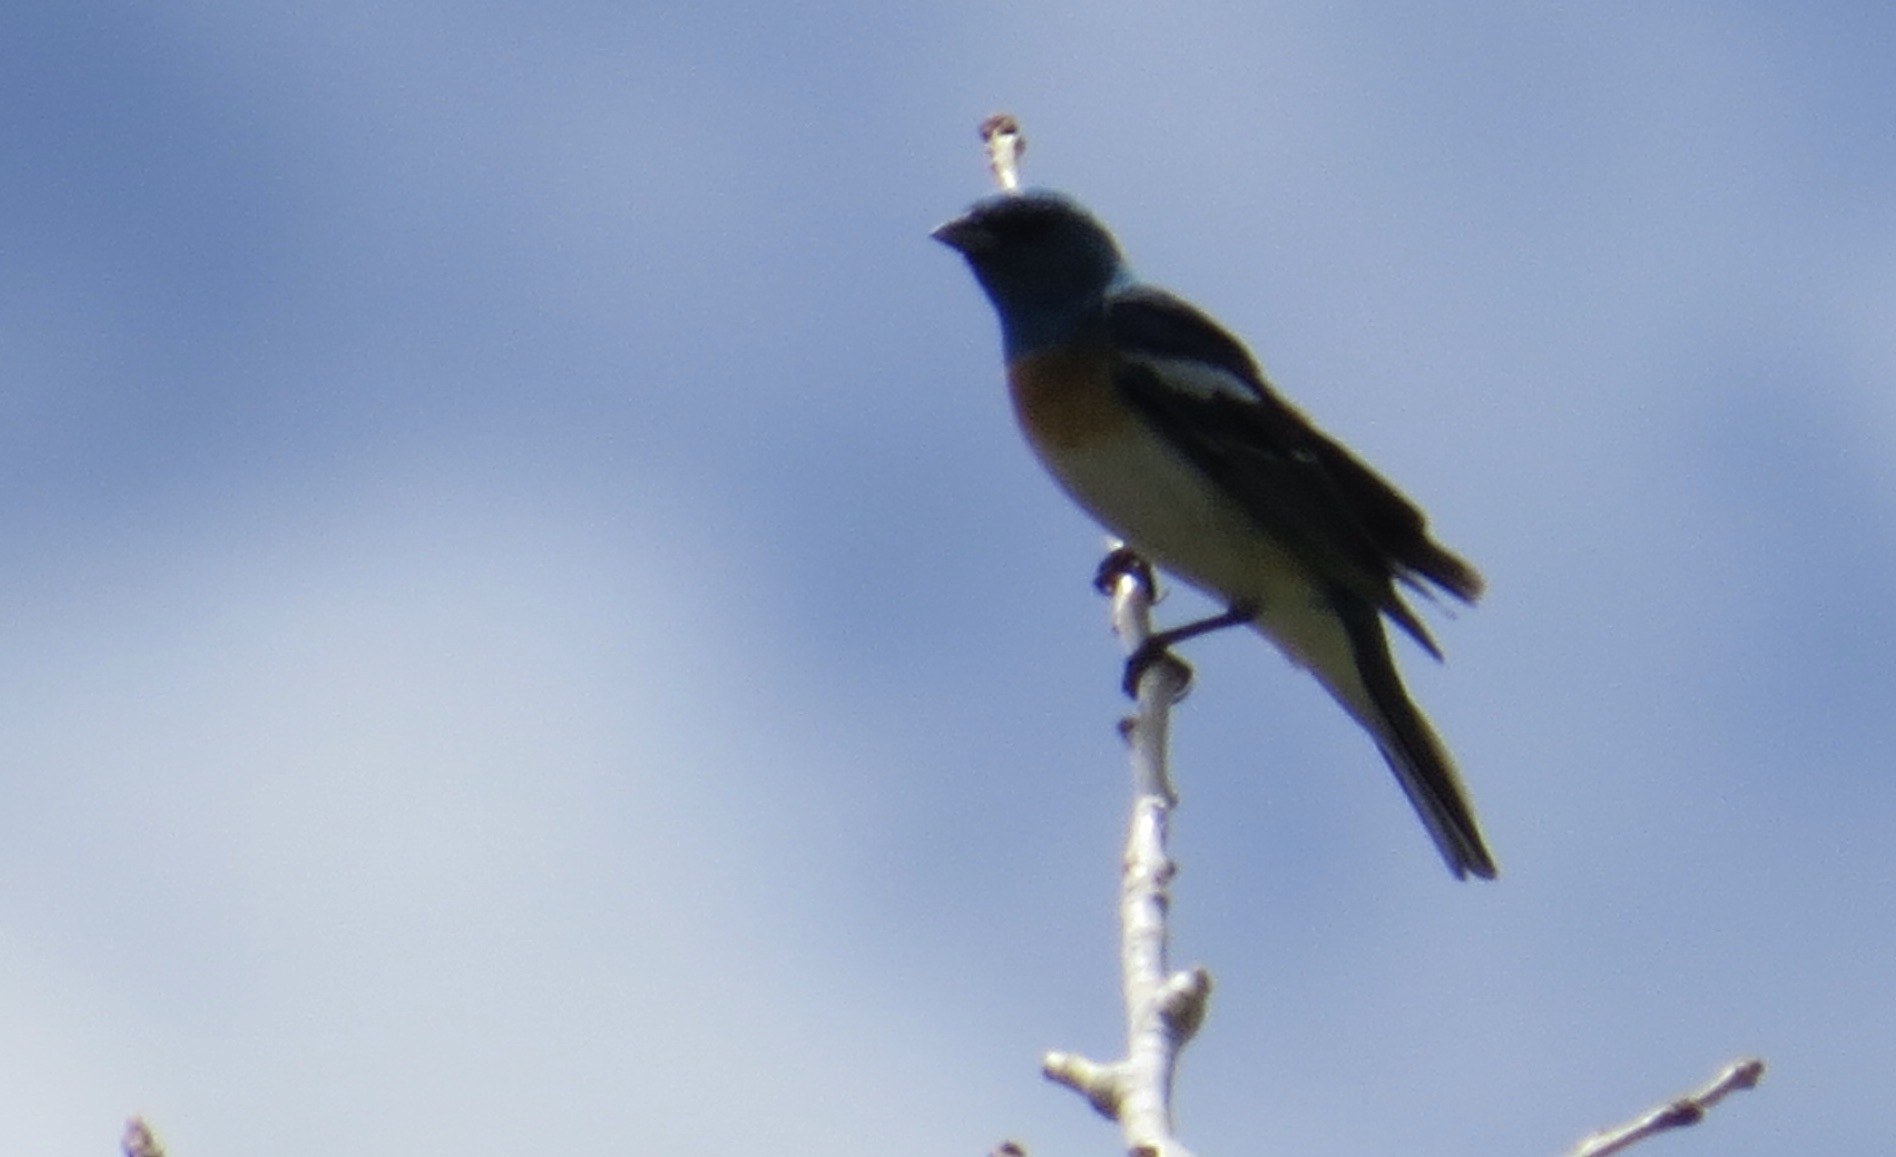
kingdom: Animalia
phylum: Chordata
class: Aves
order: Passeriformes
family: Cardinalidae
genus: Passerina
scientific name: Passerina amoena
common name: Lazuli bunting
